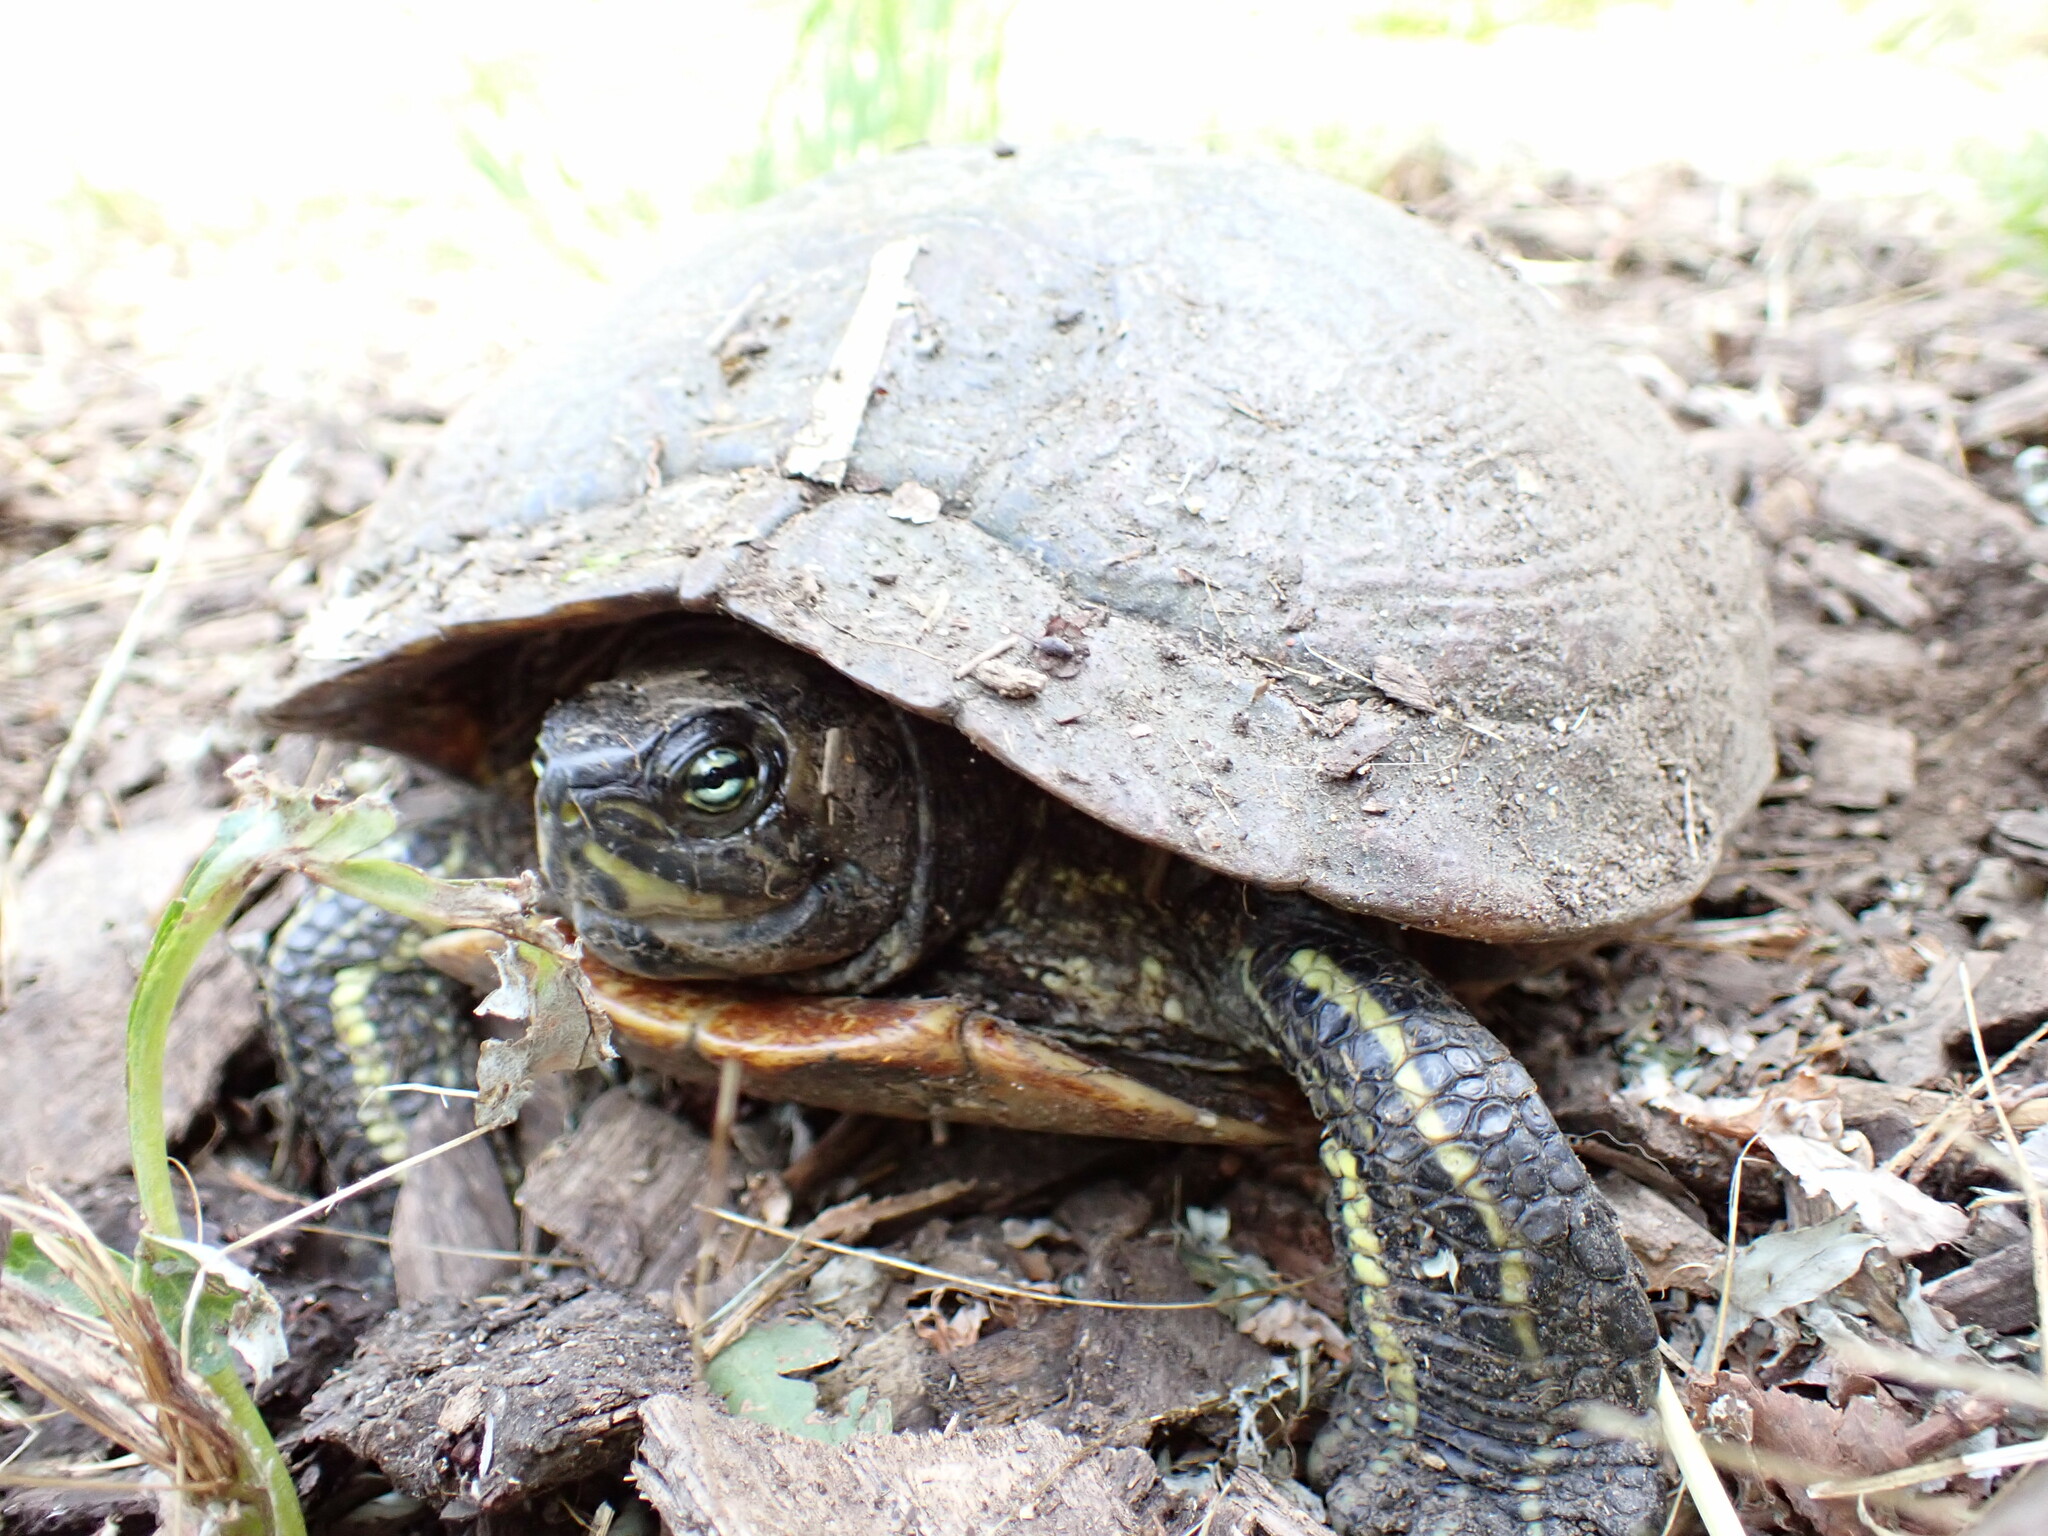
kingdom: Animalia
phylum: Chordata
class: Testudines
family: Emydidae
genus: Trachemys
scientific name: Trachemys scripta
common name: Slider
